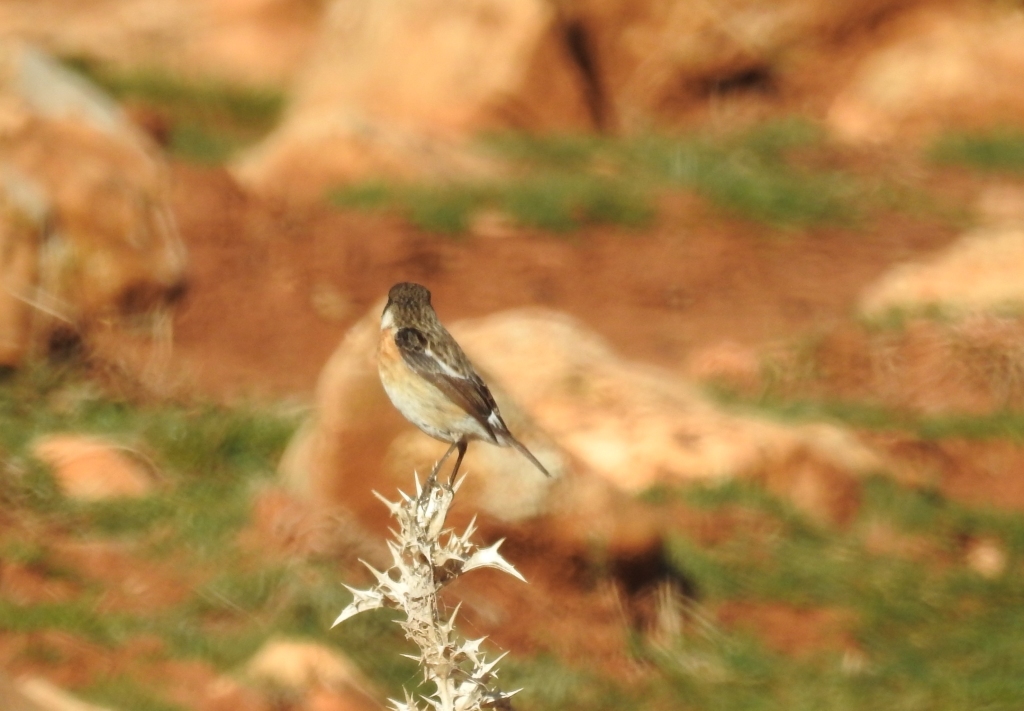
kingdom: Animalia
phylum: Chordata
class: Aves
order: Passeriformes
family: Muscicapidae
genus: Saxicola
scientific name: Saxicola rubicola
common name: European stonechat
